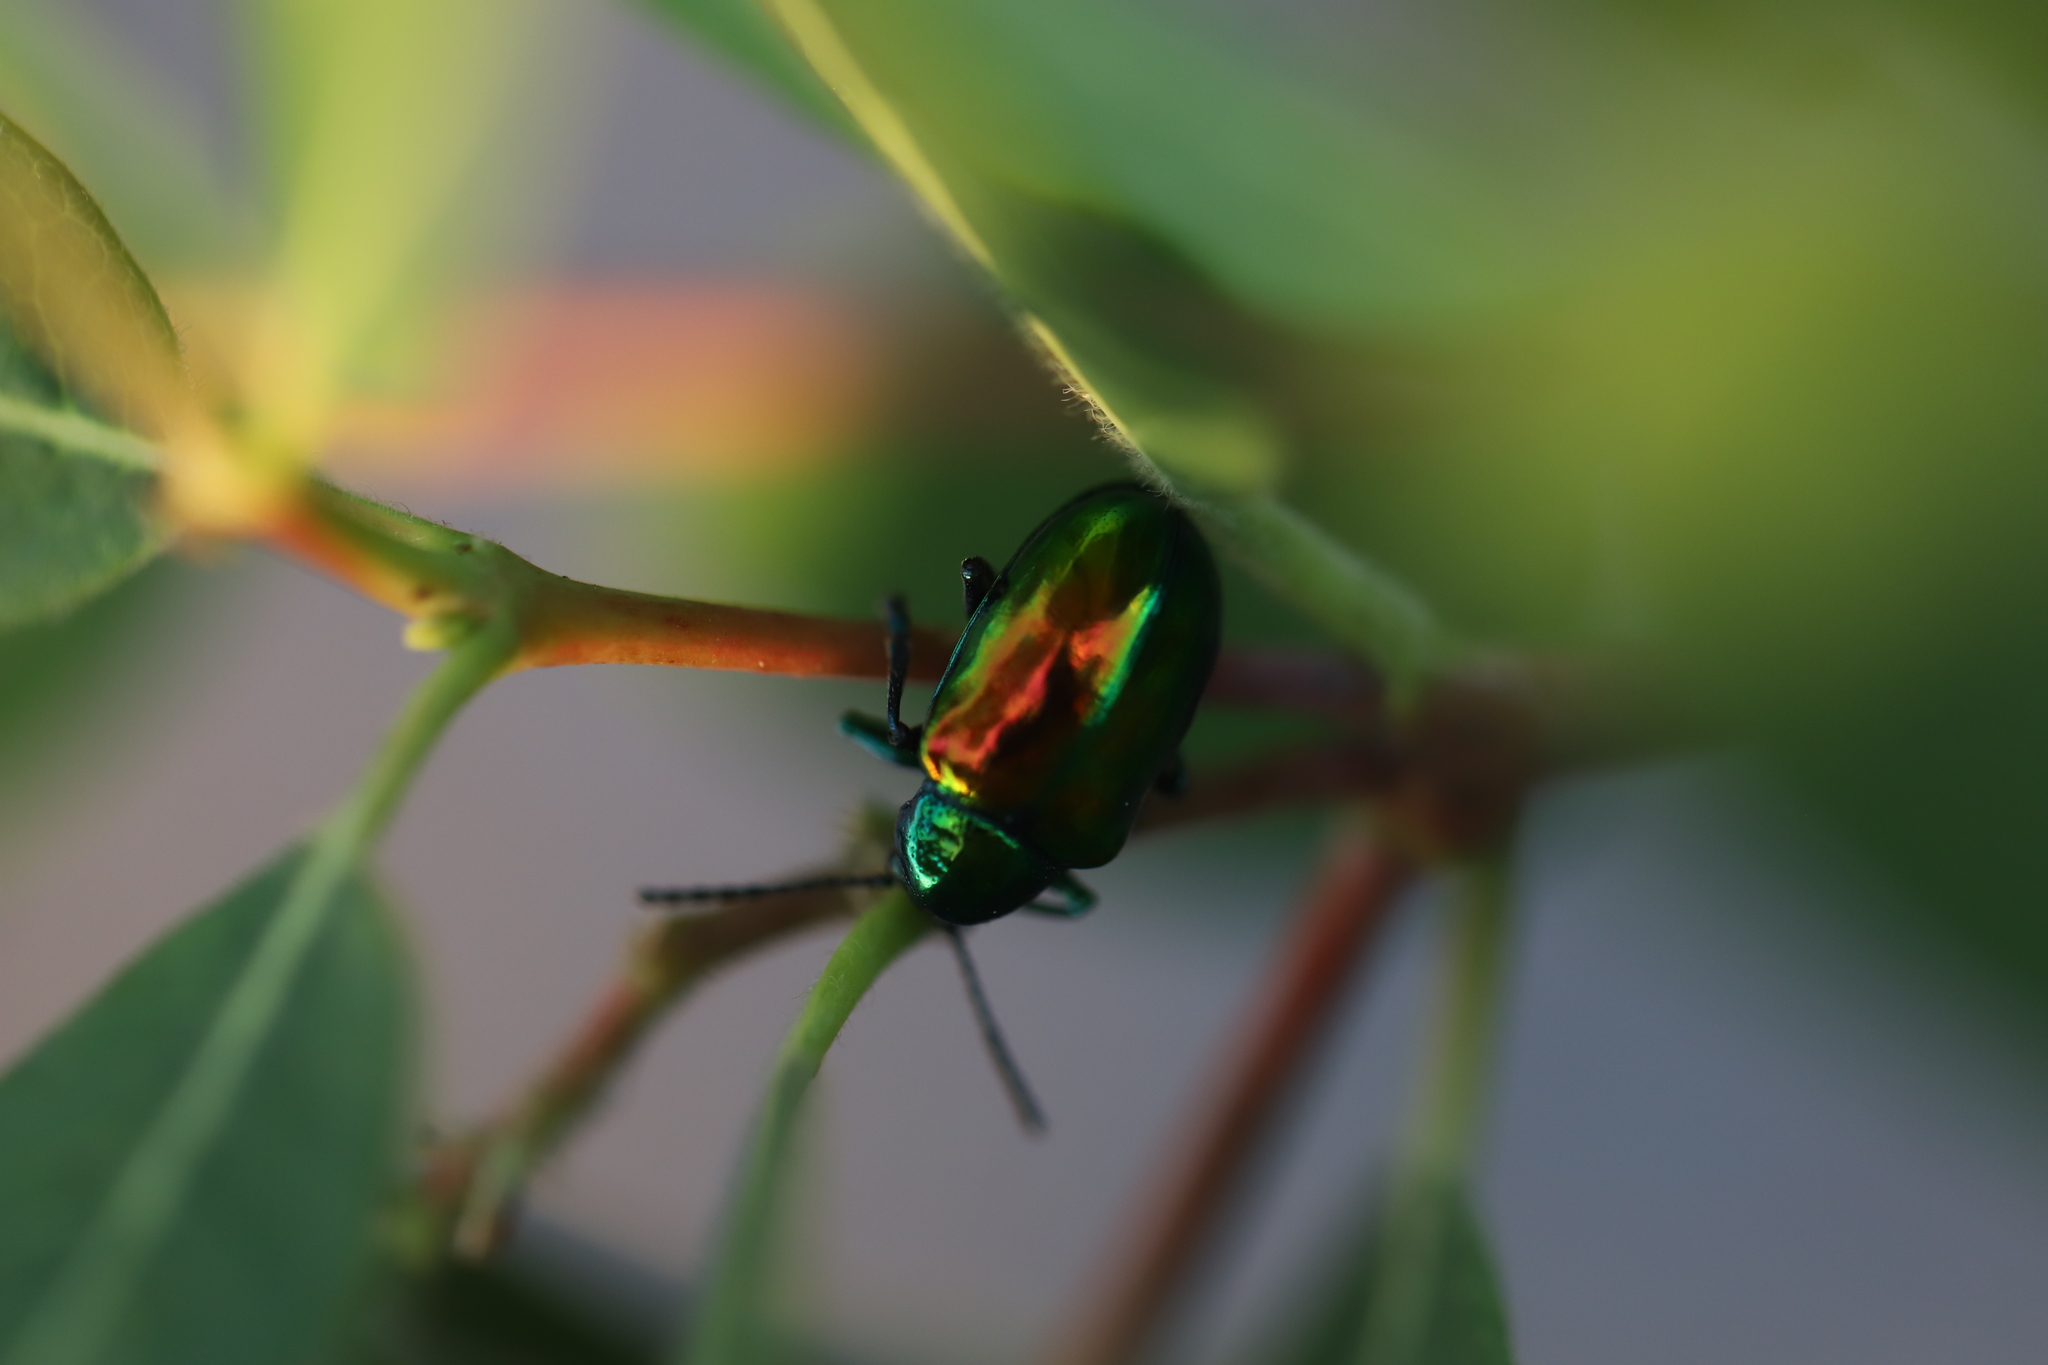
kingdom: Animalia
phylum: Arthropoda
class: Insecta
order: Coleoptera
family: Chrysomelidae
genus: Chrysochus
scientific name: Chrysochus auratus
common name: Dogbane leaf beetle
